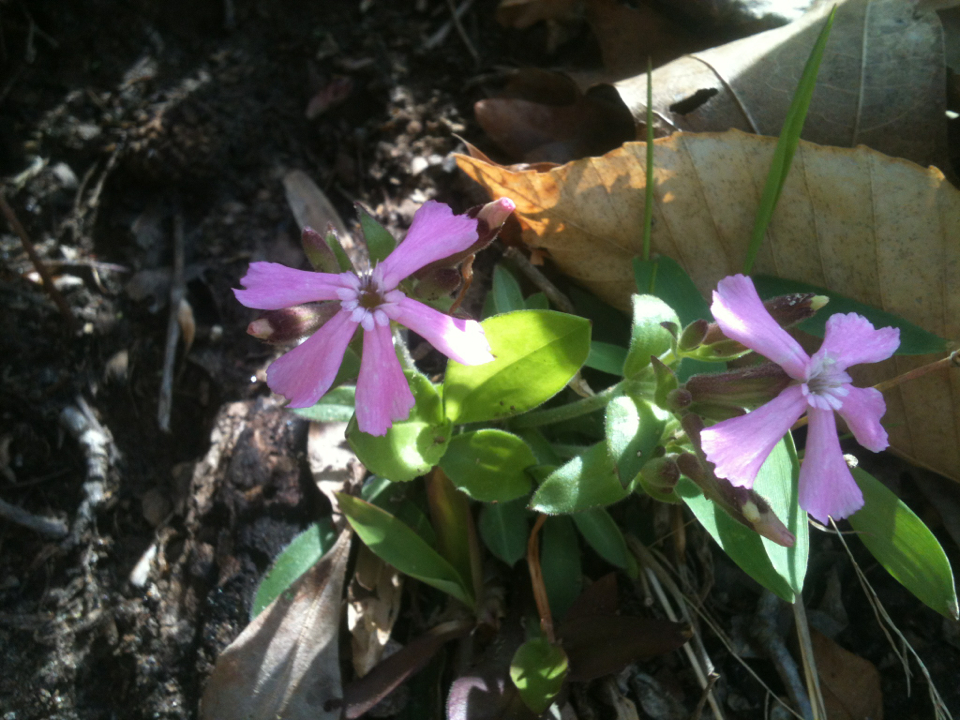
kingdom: Plantae
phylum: Tracheophyta
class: Magnoliopsida
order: Caryophyllales
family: Caryophyllaceae
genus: Silene
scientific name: Silene caroliniana
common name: Sticky catchfly
